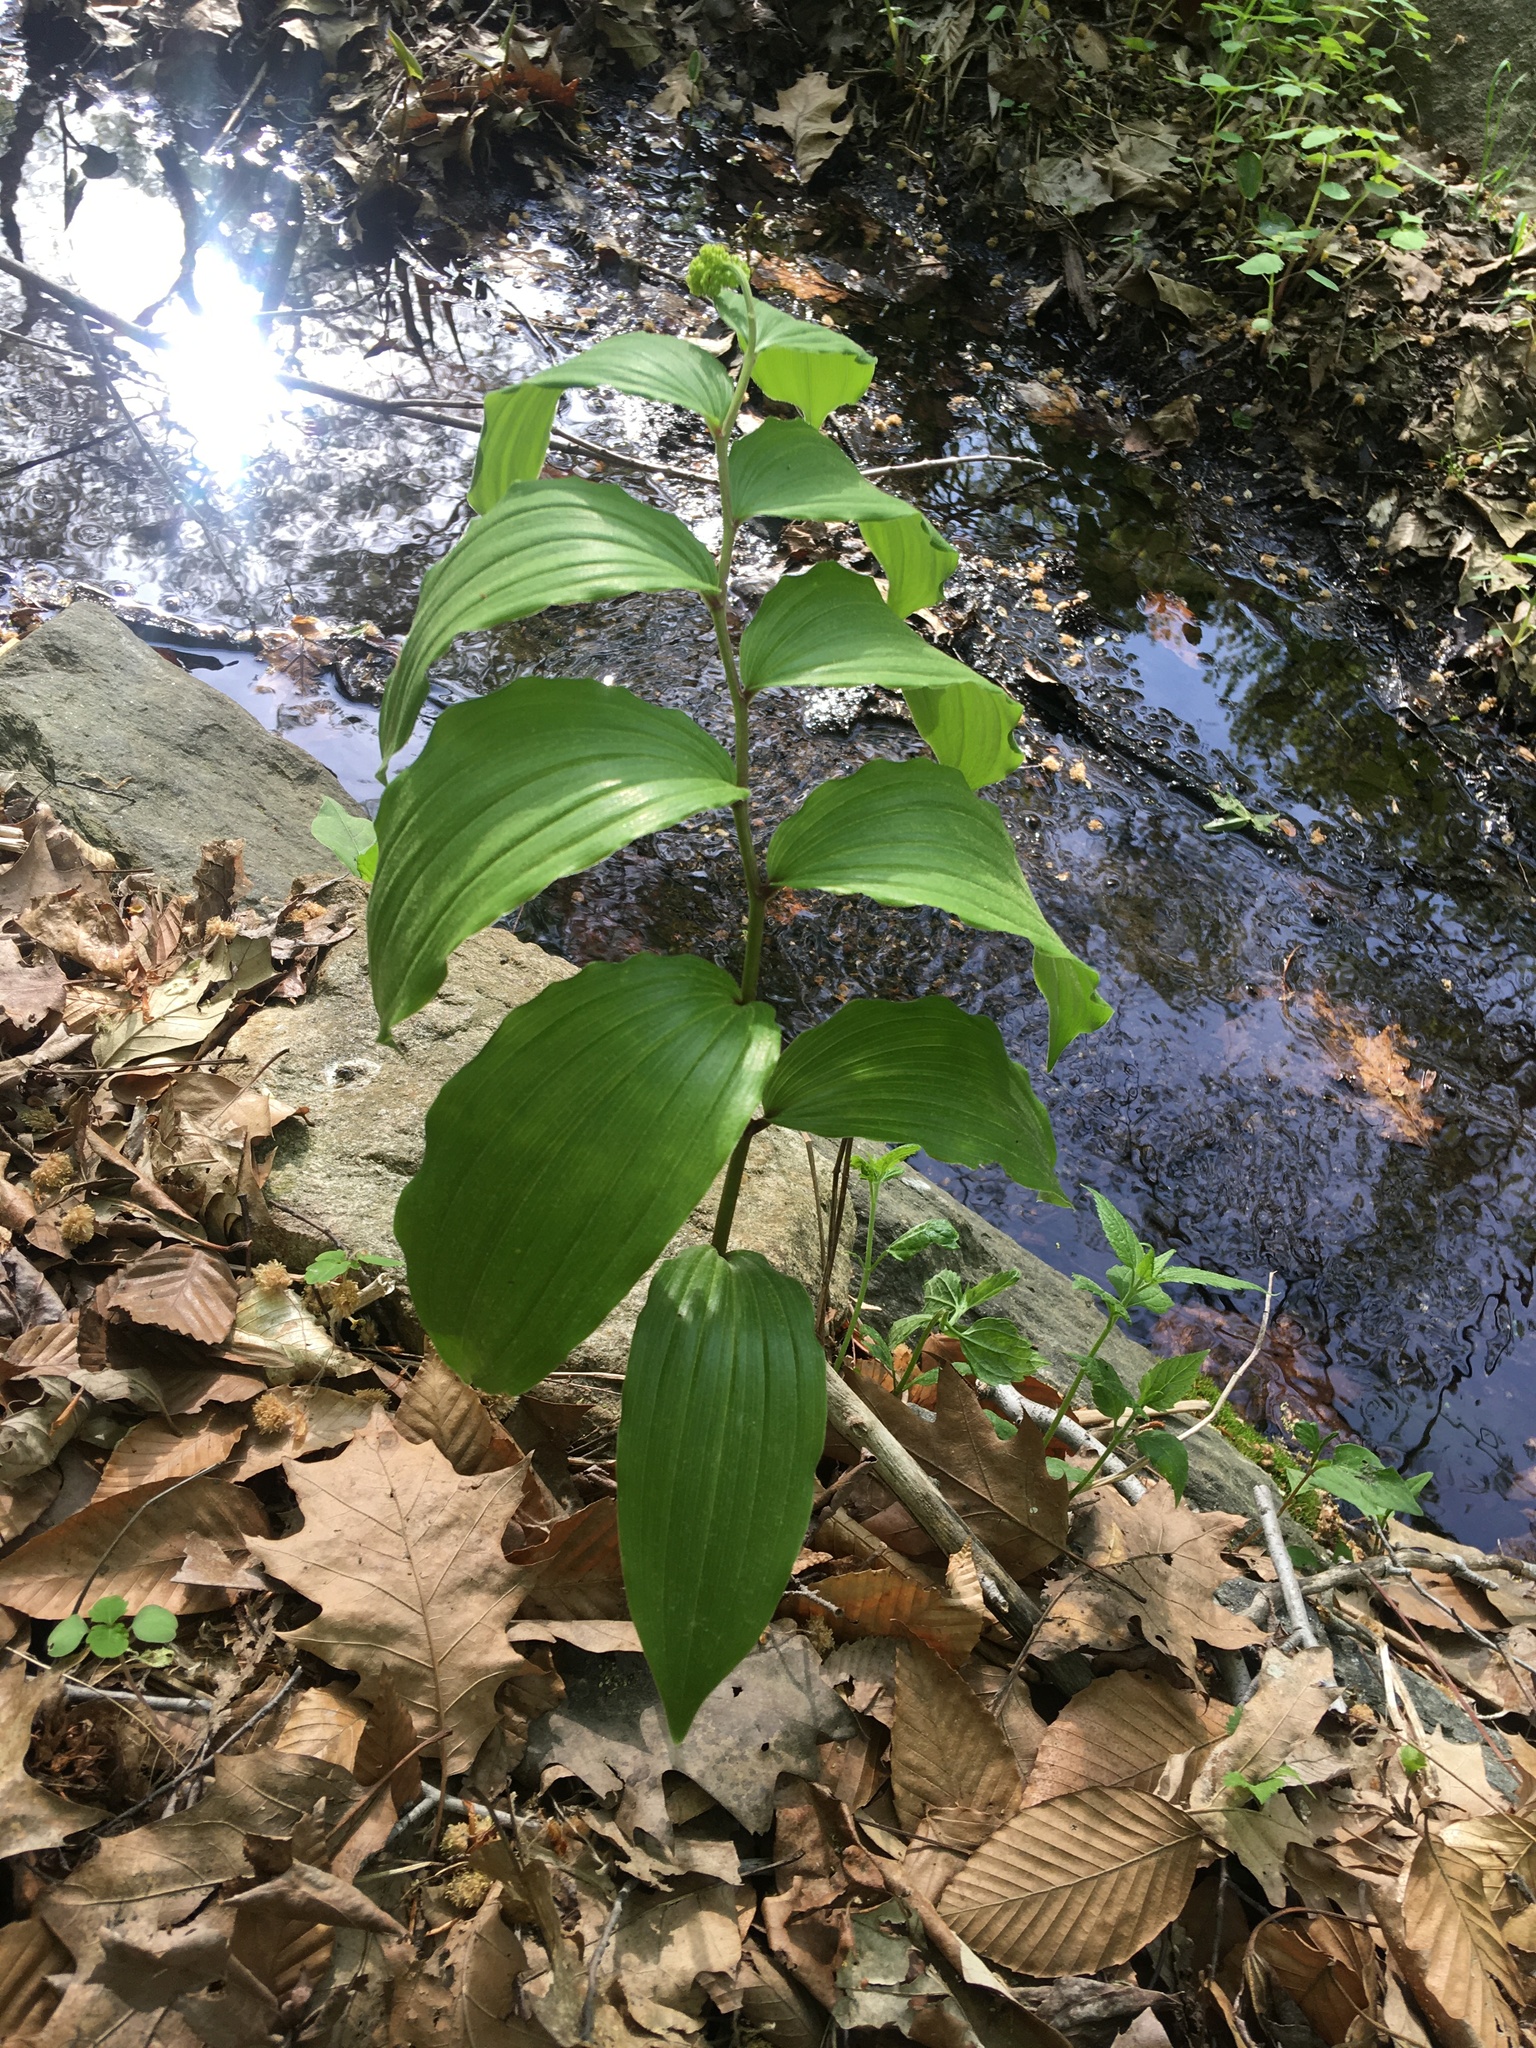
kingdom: Plantae
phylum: Tracheophyta
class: Liliopsida
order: Asparagales
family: Asparagaceae
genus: Maianthemum
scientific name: Maianthemum racemosum
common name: False spikenard
